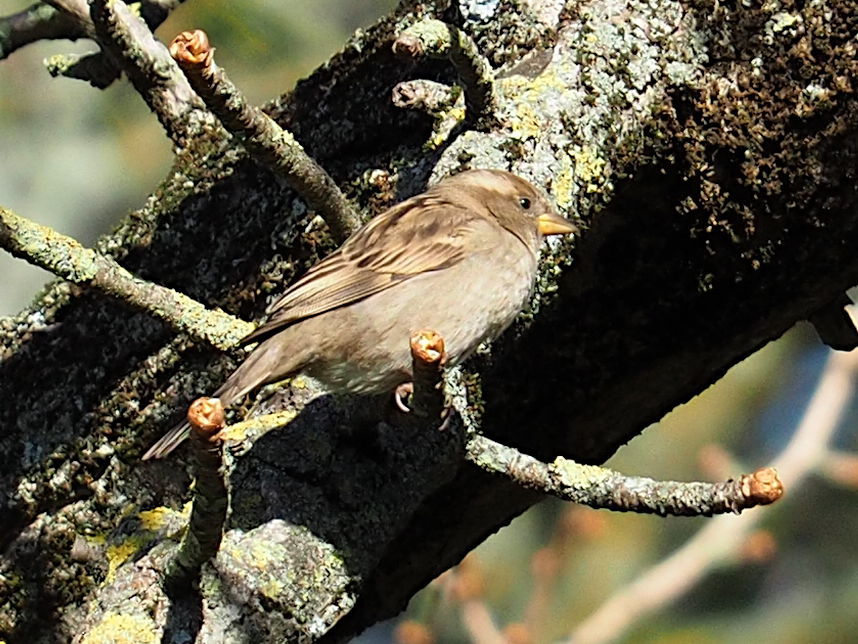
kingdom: Animalia
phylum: Chordata
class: Aves
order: Passeriformes
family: Passeridae
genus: Passer
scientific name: Passer domesticus
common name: House sparrow
